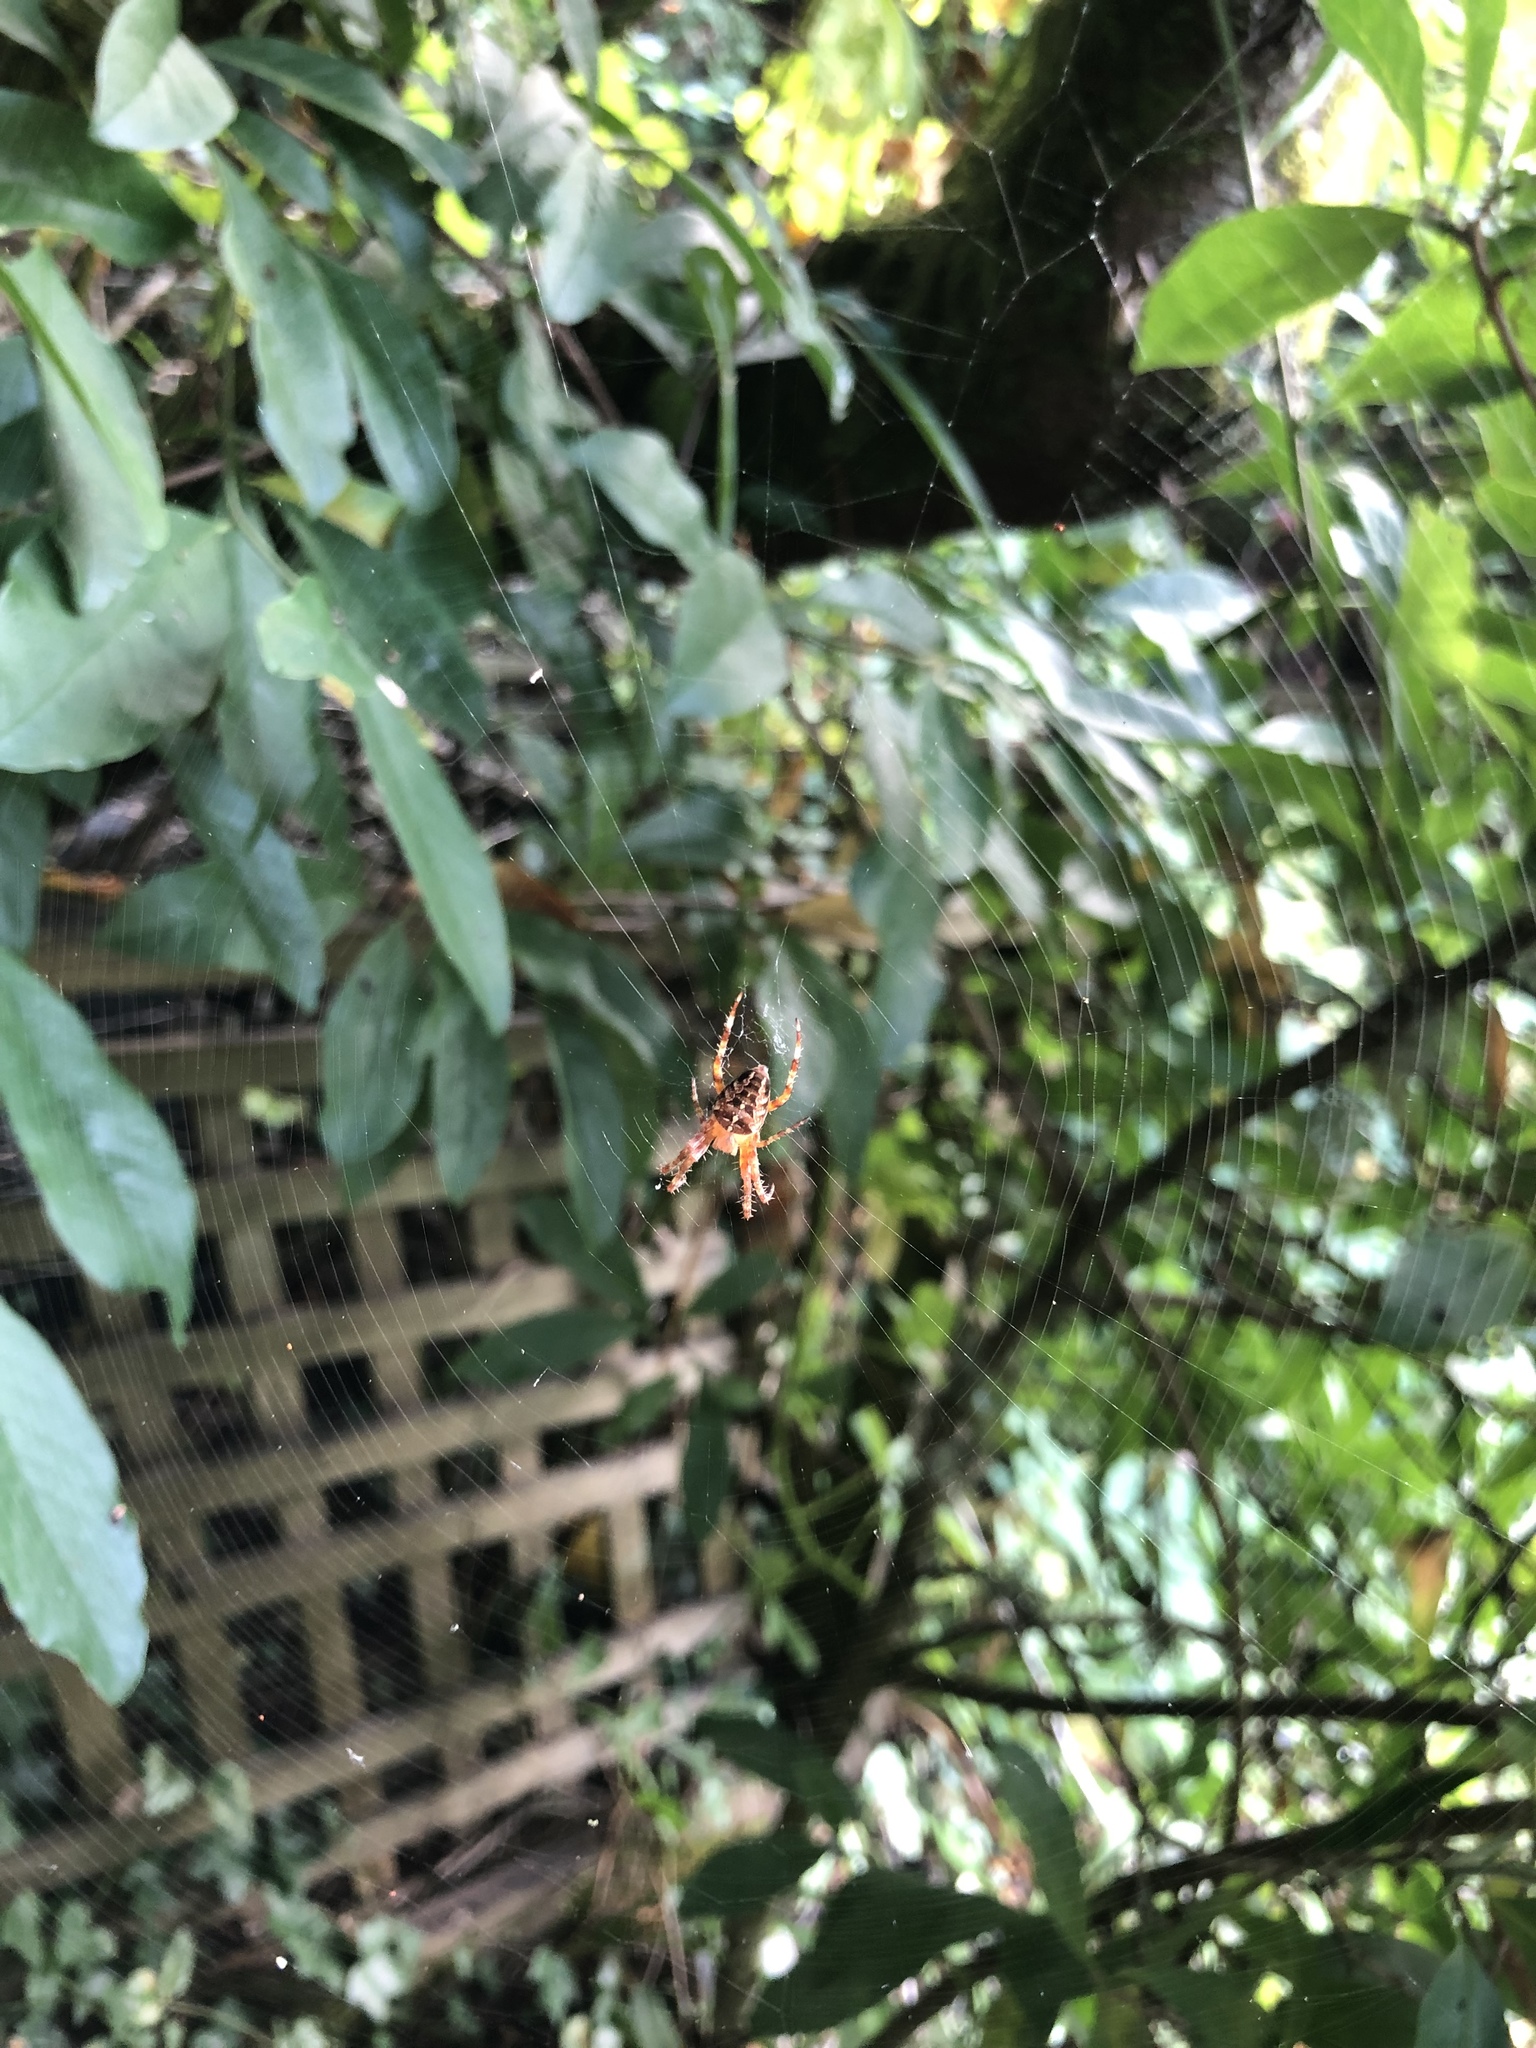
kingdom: Animalia
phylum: Arthropoda
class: Arachnida
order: Araneae
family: Araneidae
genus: Araneus
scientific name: Araneus diadematus
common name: Cross orbweaver
